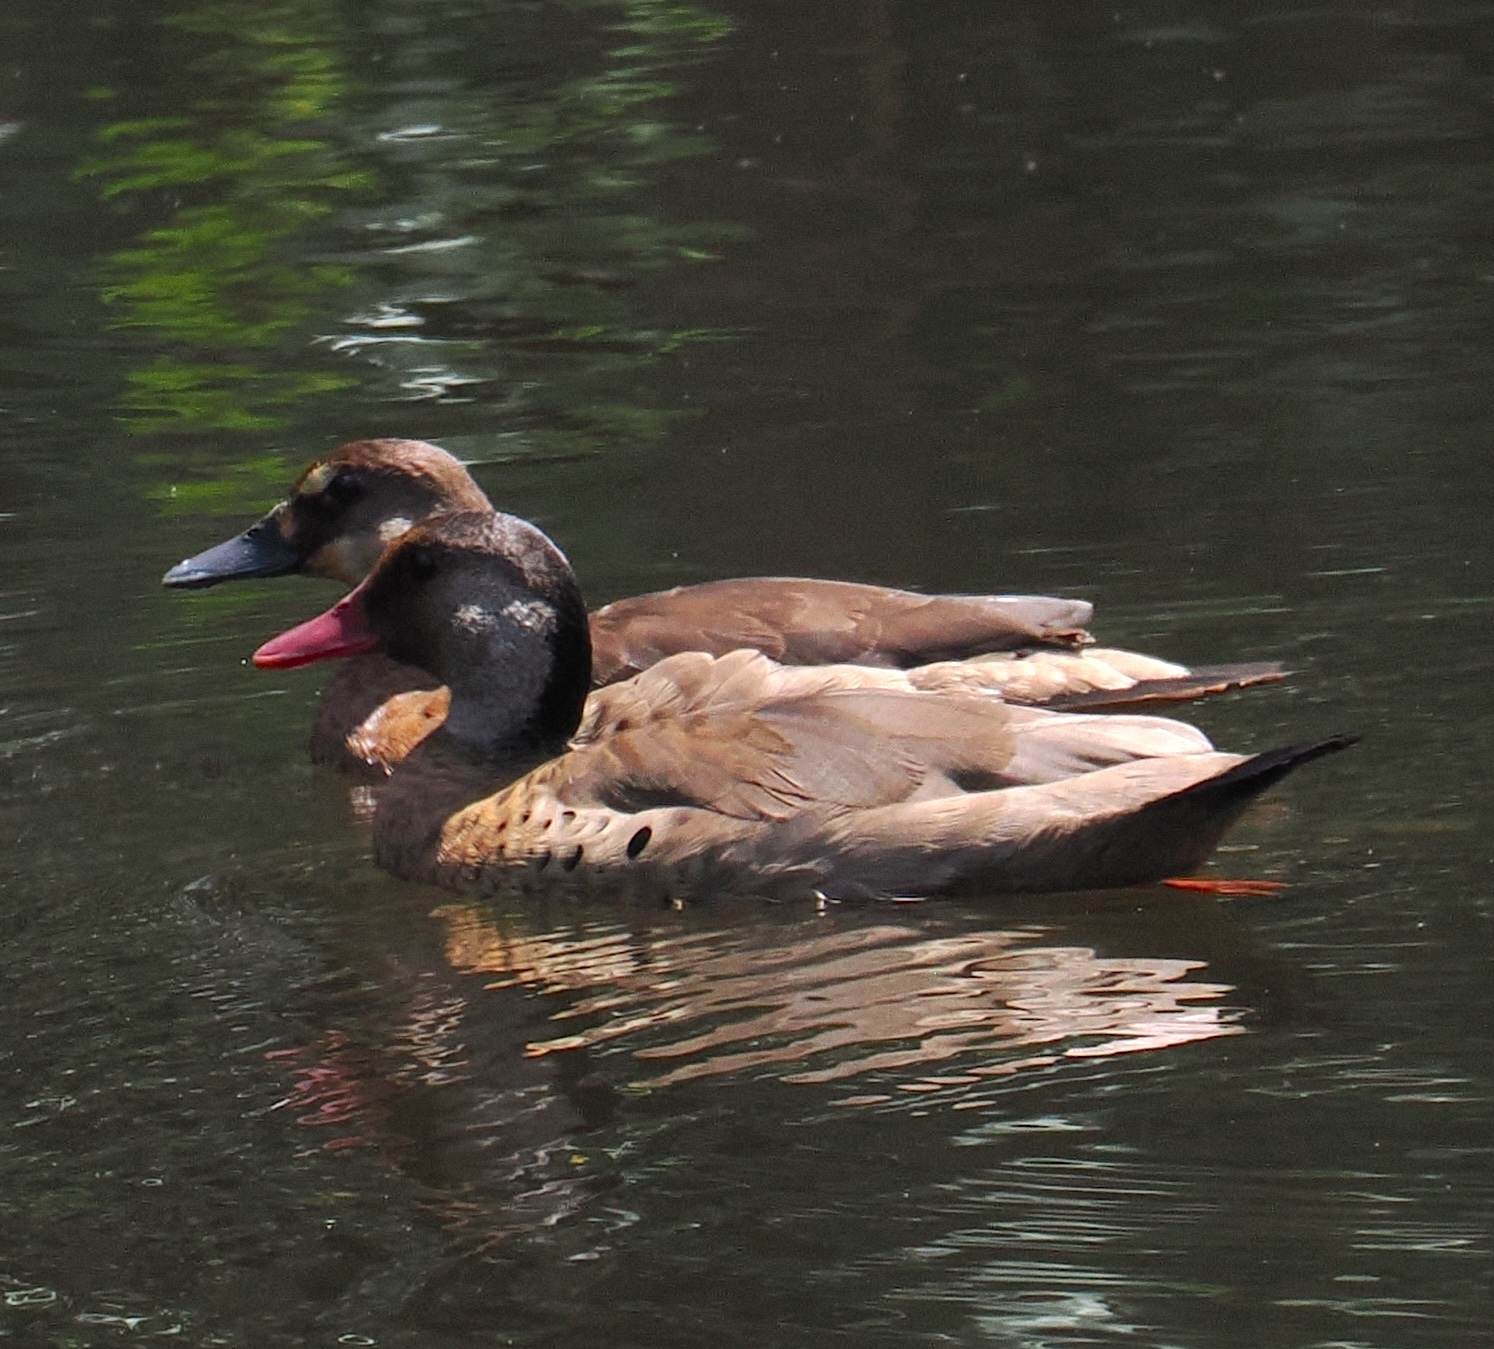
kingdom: Animalia
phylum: Chordata
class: Aves
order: Anseriformes
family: Anatidae
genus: Amazonetta
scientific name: Amazonetta brasiliensis
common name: Brazilian teal
